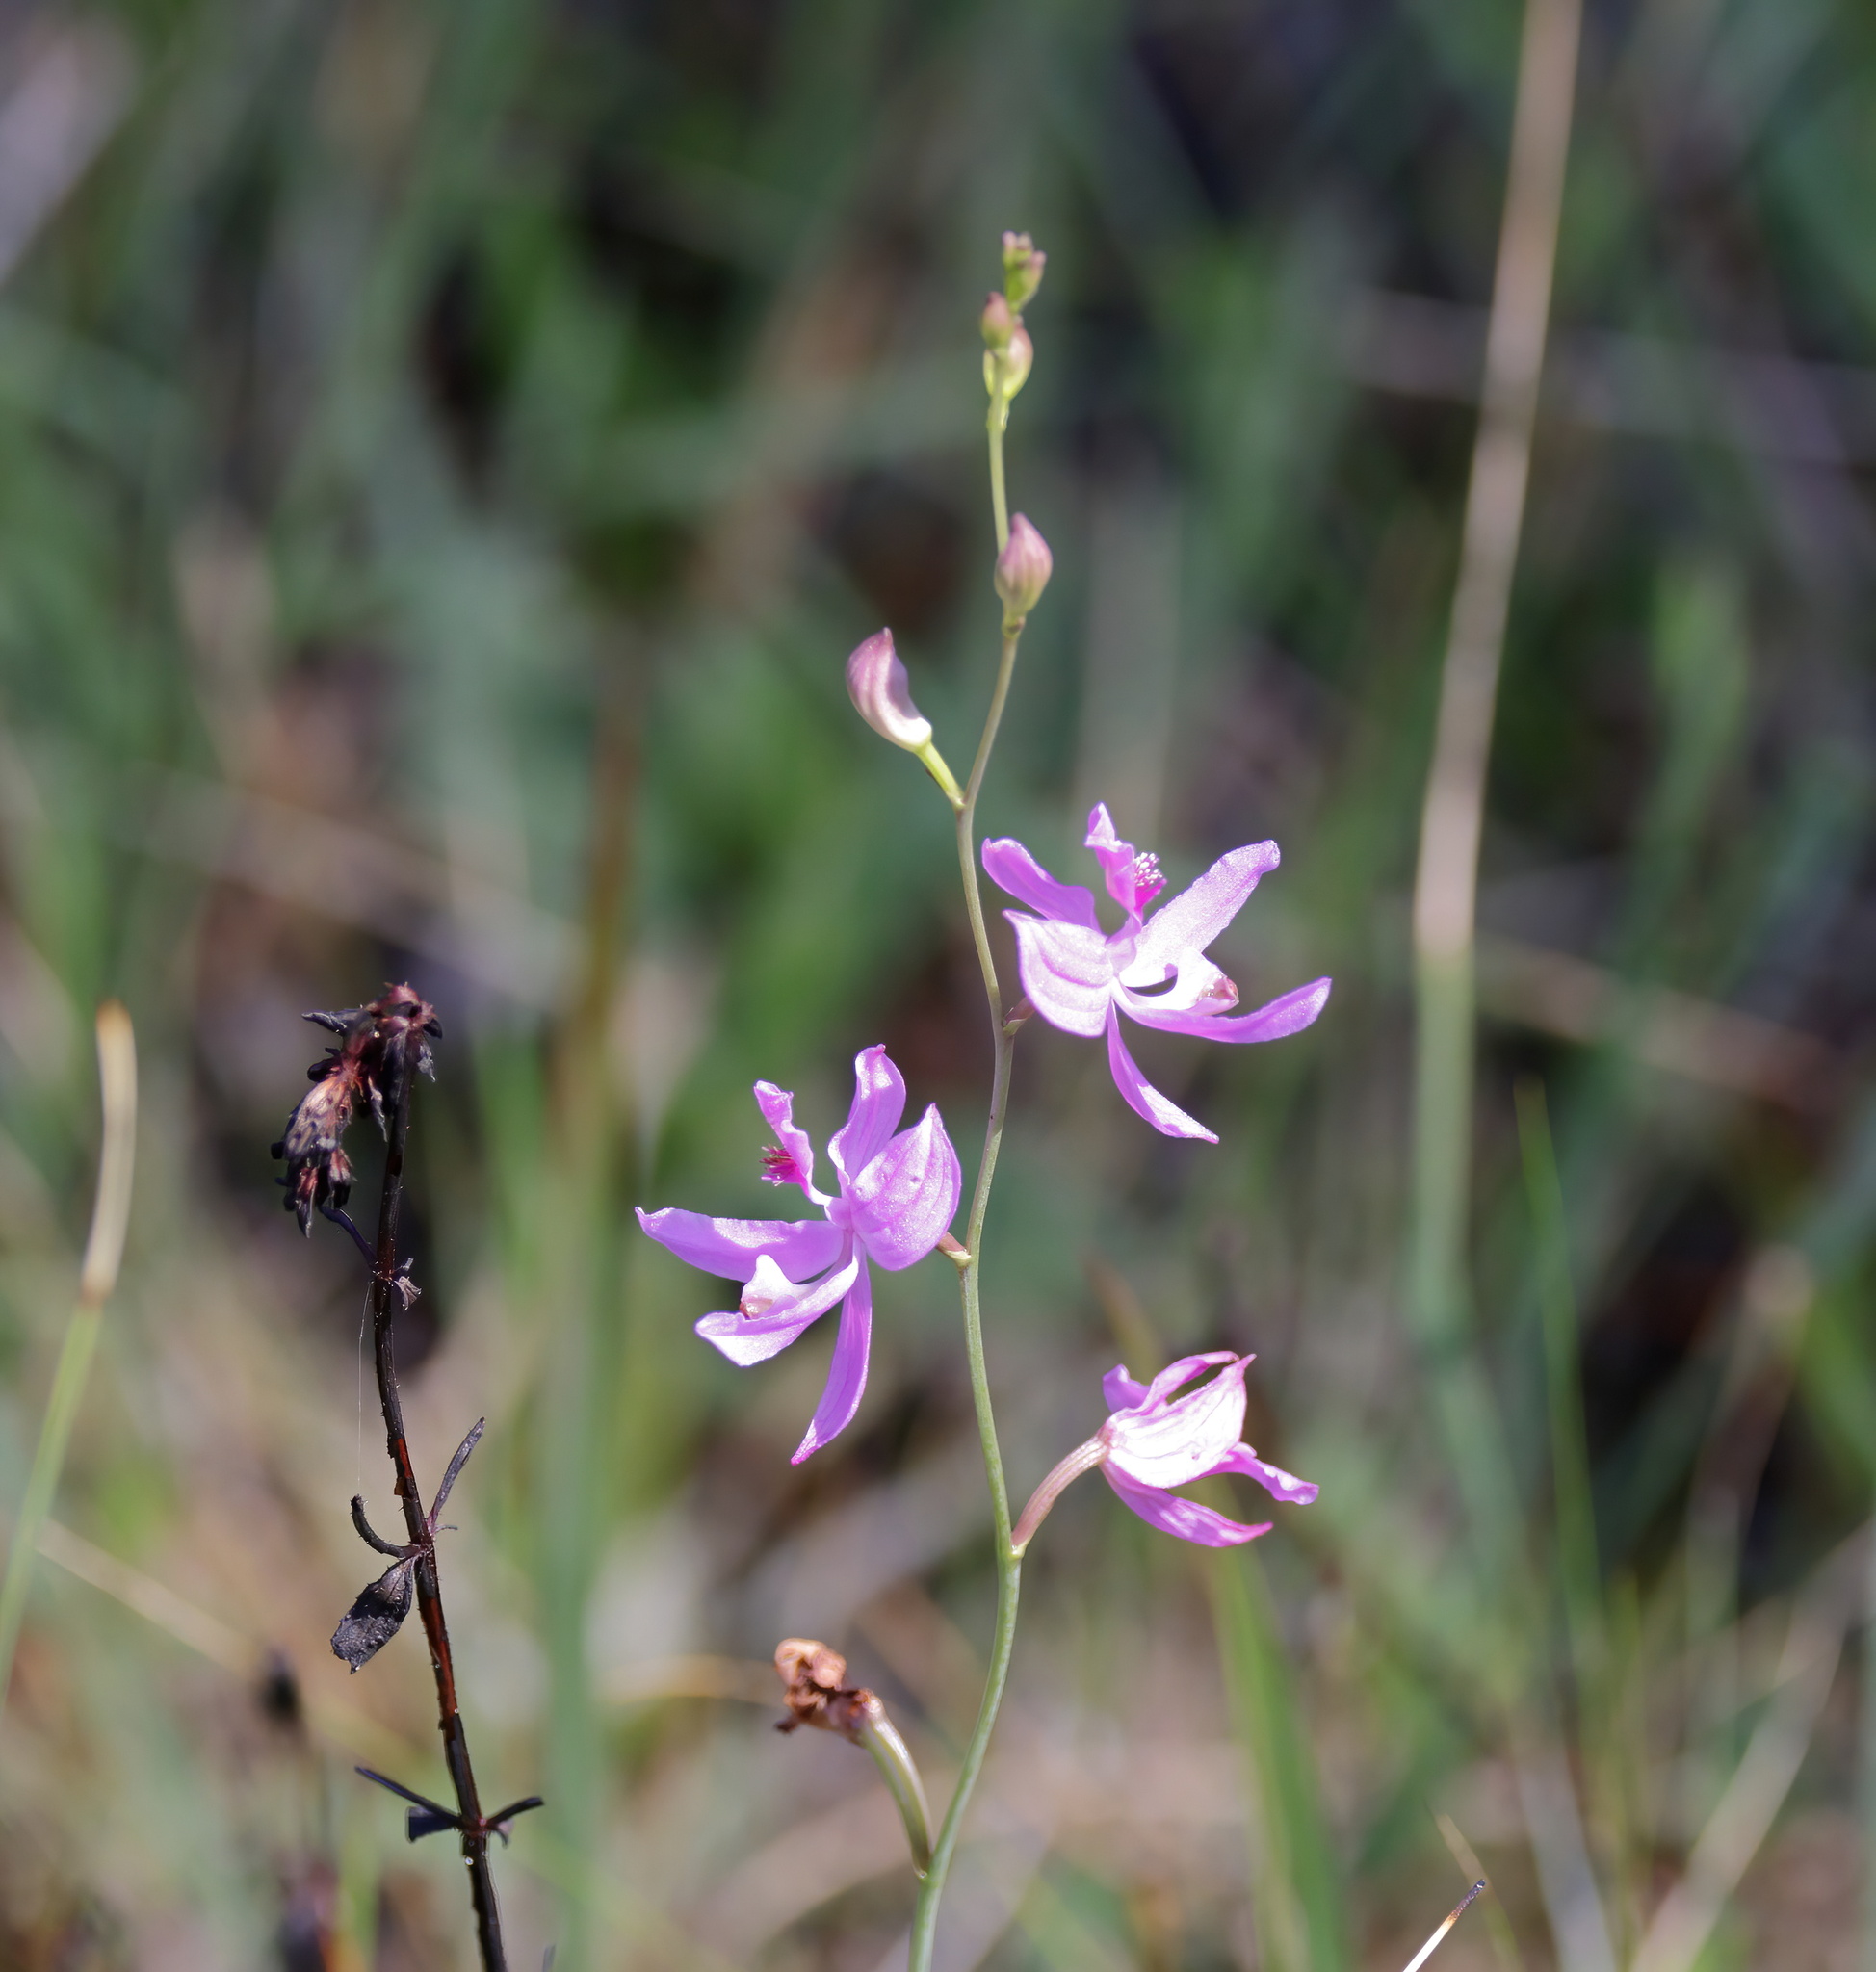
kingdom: Plantae
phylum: Tracheophyta
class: Liliopsida
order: Asparagales
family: Orchidaceae
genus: Calopogon
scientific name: Calopogon pallidus
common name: Pale grasspink
